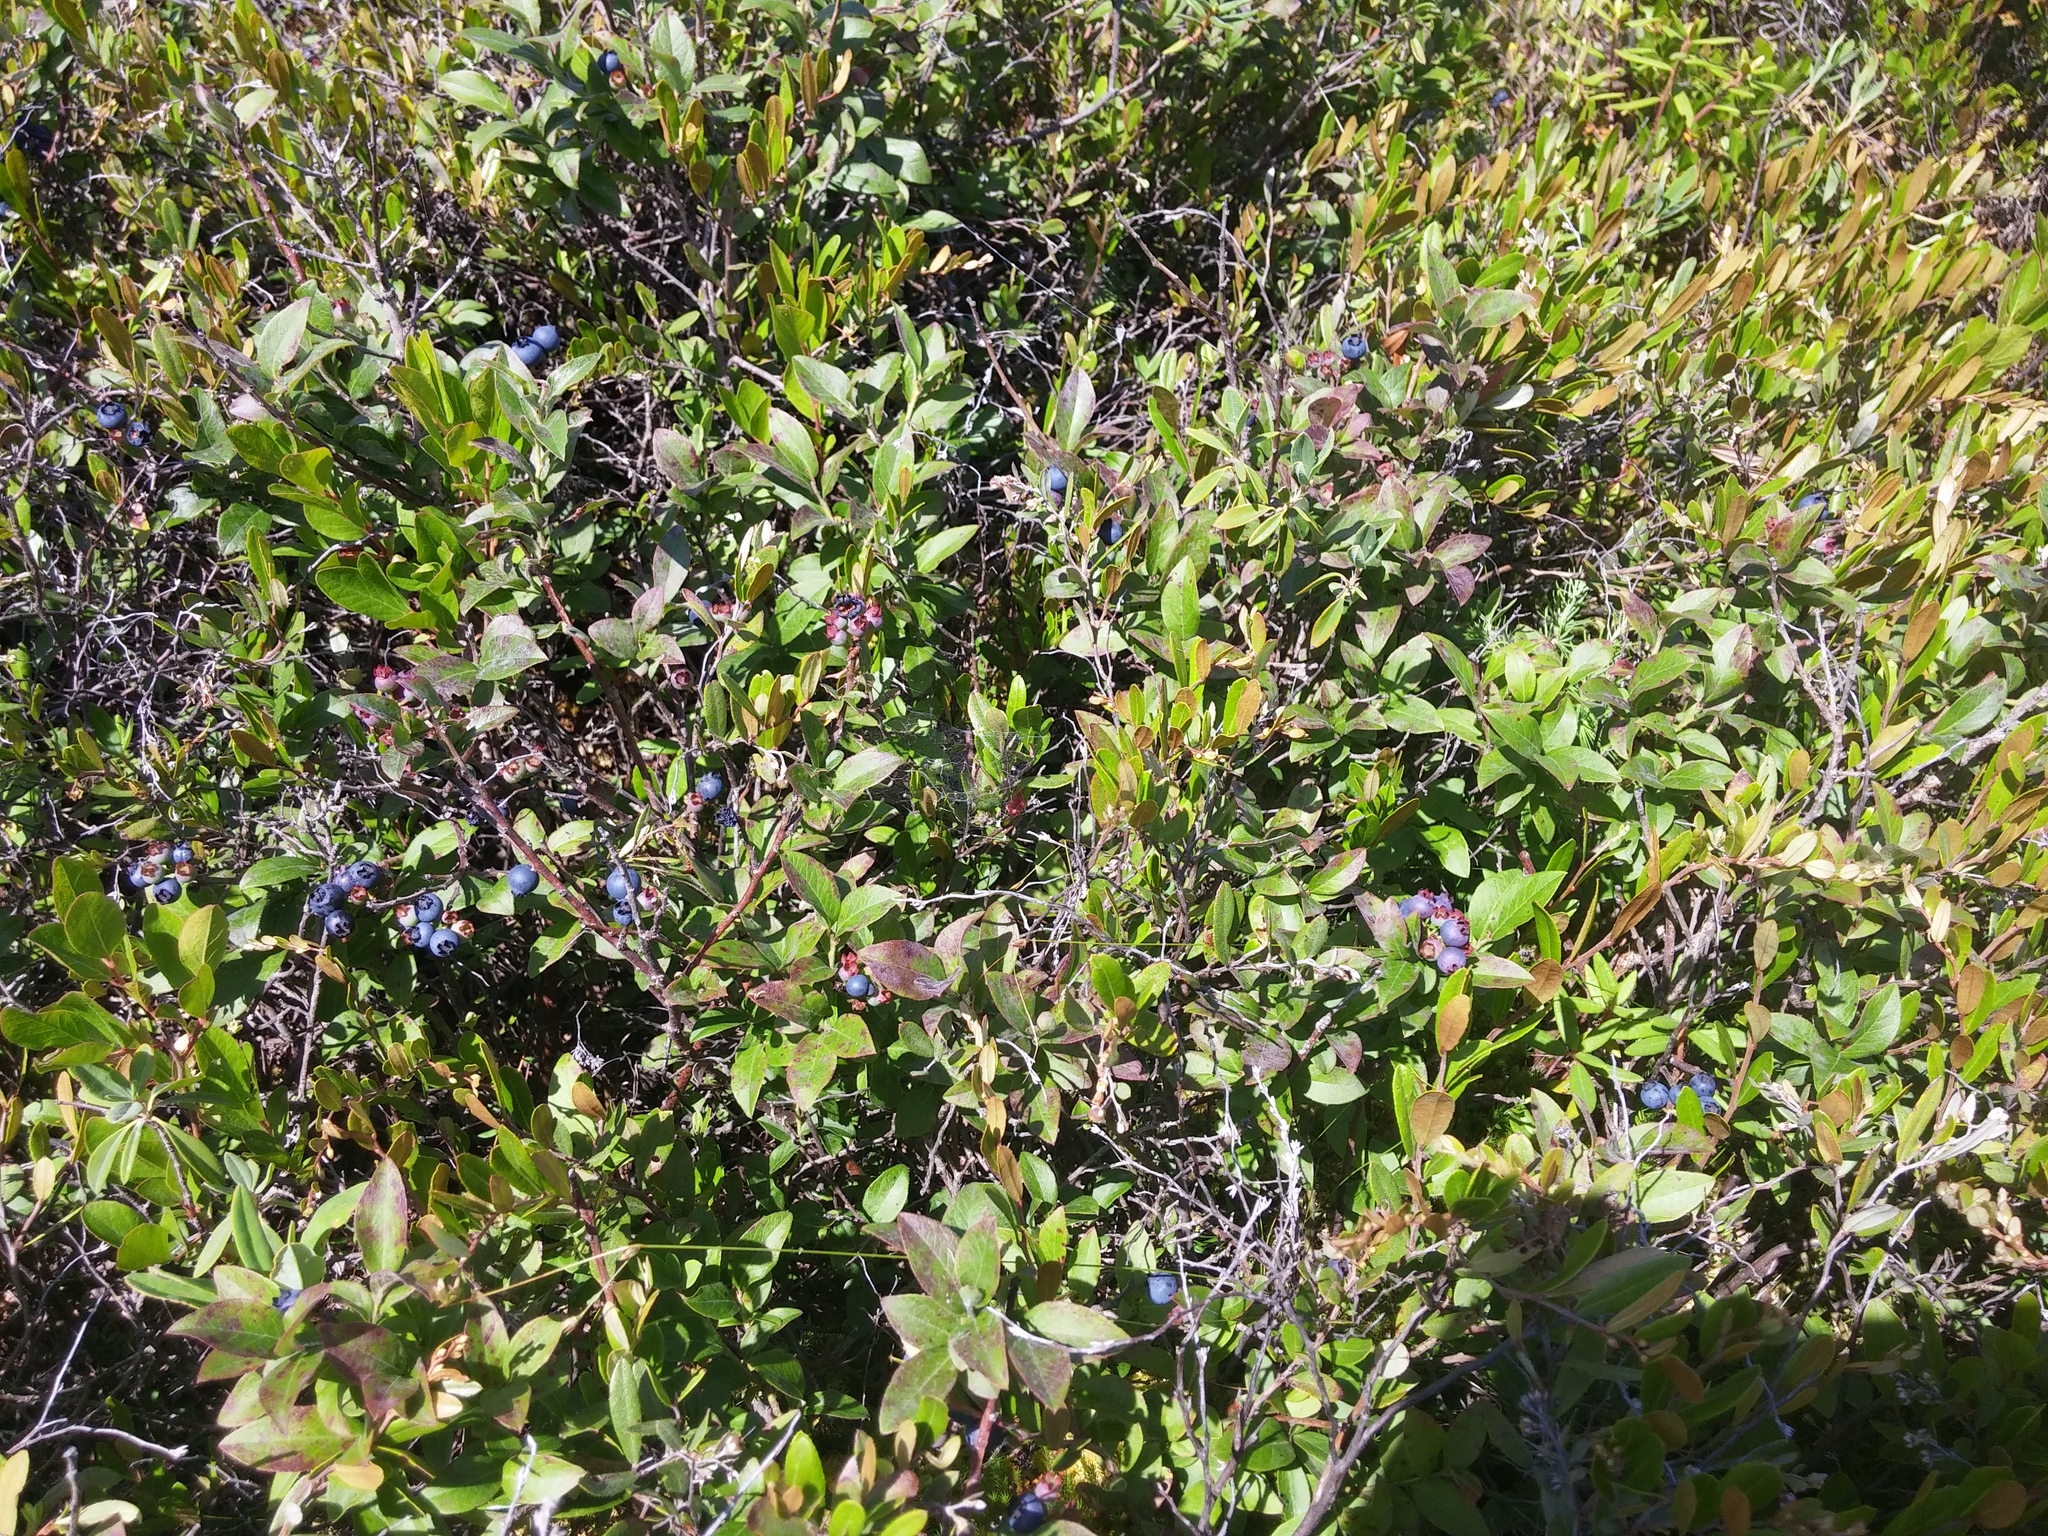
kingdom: Plantae
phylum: Tracheophyta
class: Magnoliopsida
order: Ericales
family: Ericaceae
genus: Vaccinium
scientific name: Vaccinium angustifolium
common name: Early lowbush blueberry
